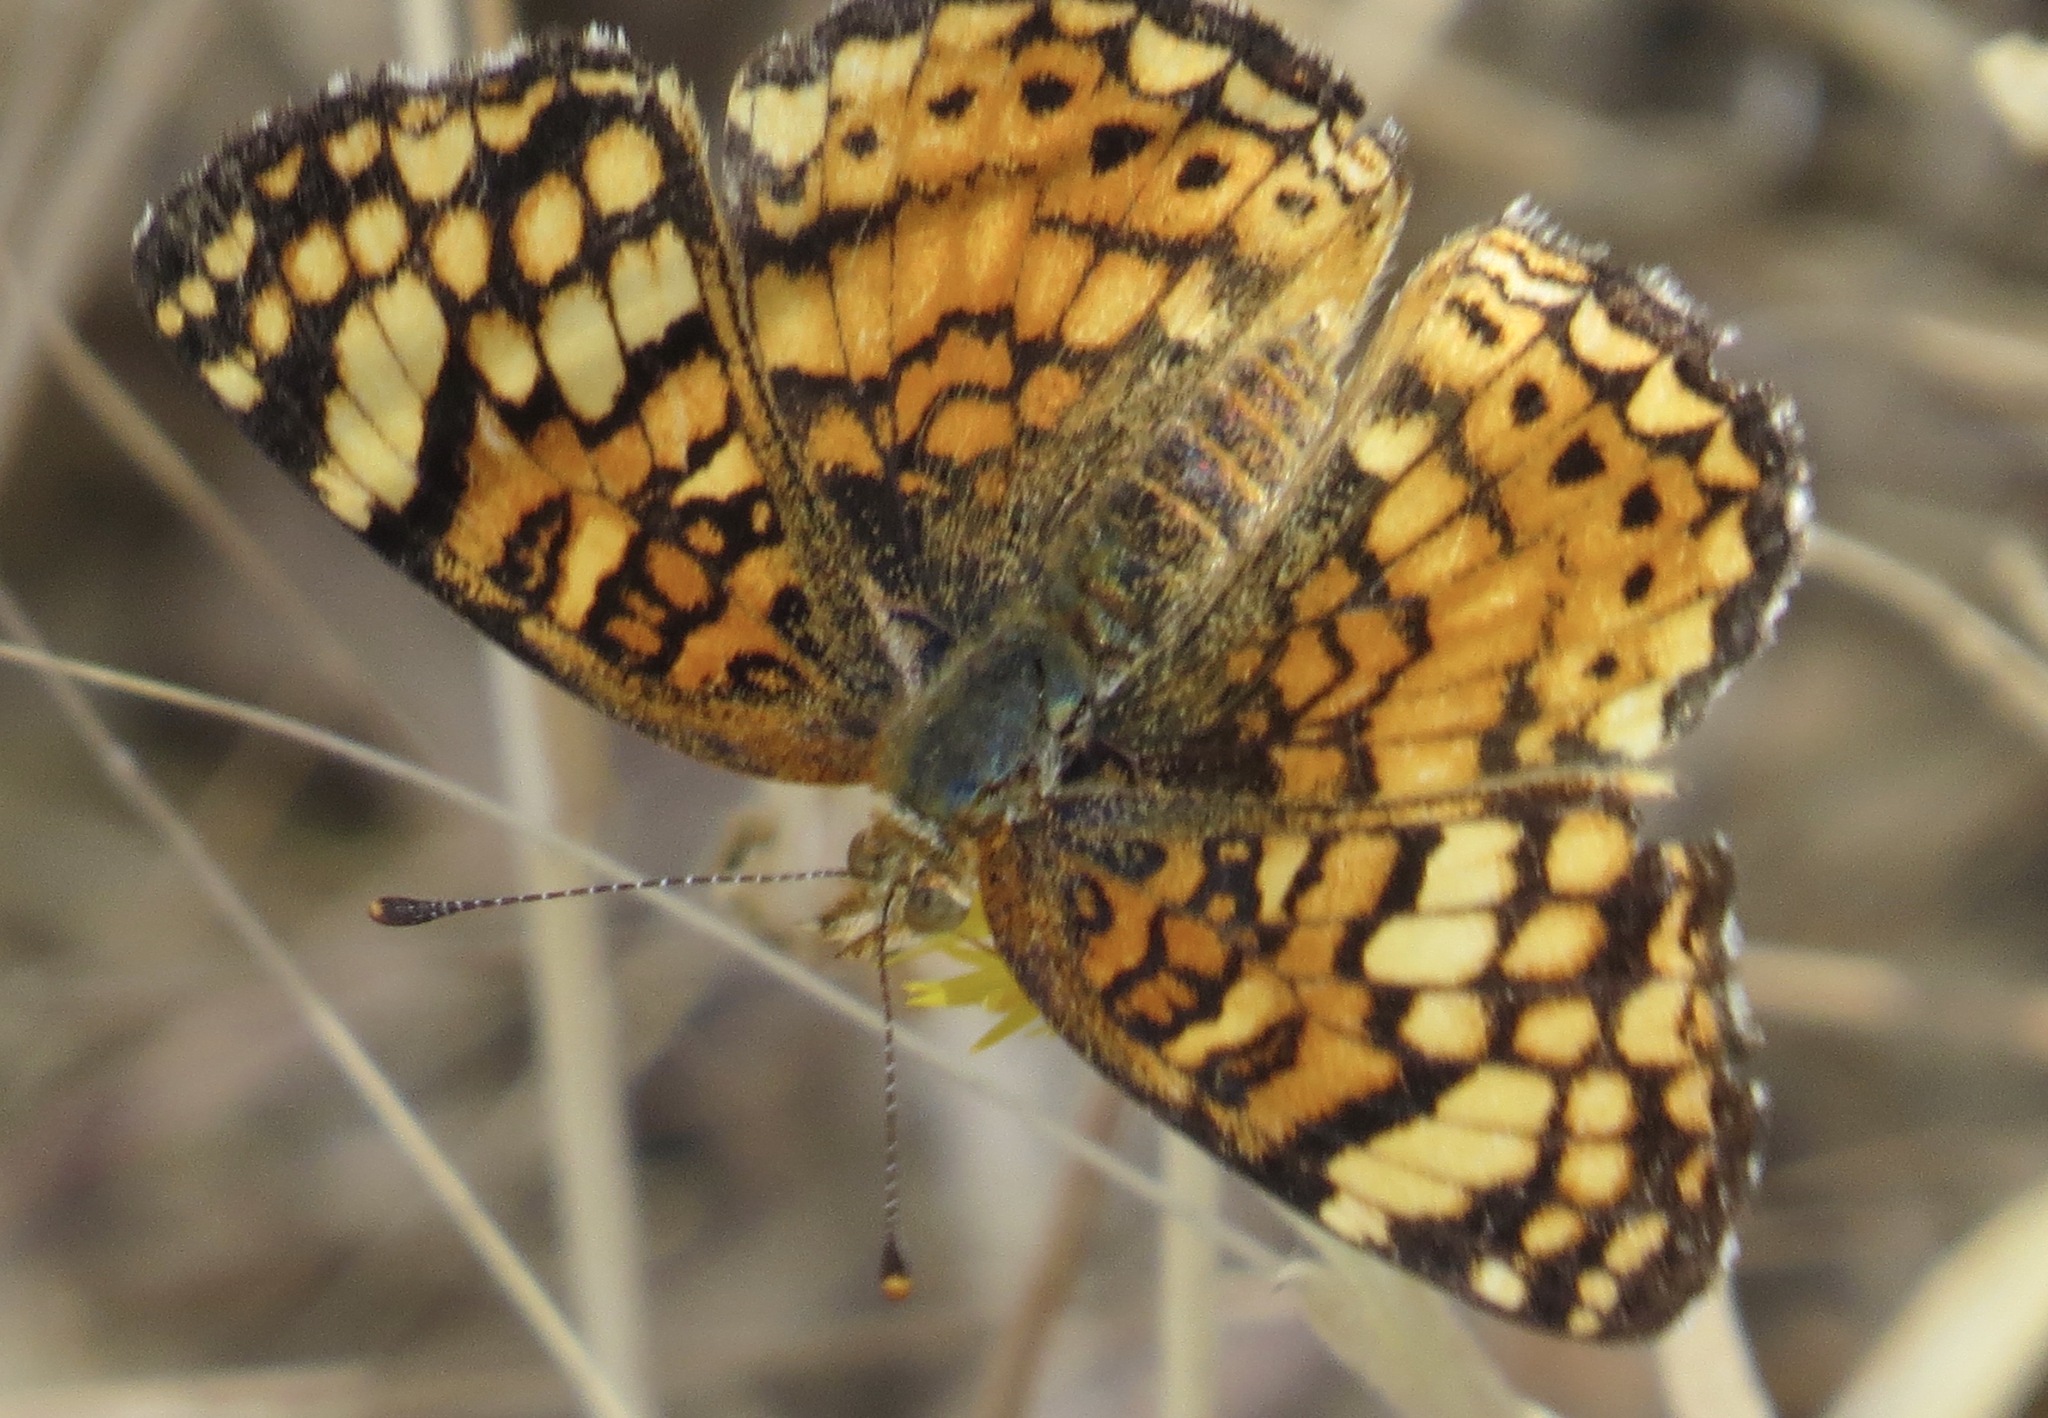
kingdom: Animalia
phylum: Arthropoda
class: Insecta
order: Lepidoptera
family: Nymphalidae
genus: Eresia
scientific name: Eresia aveyrona
